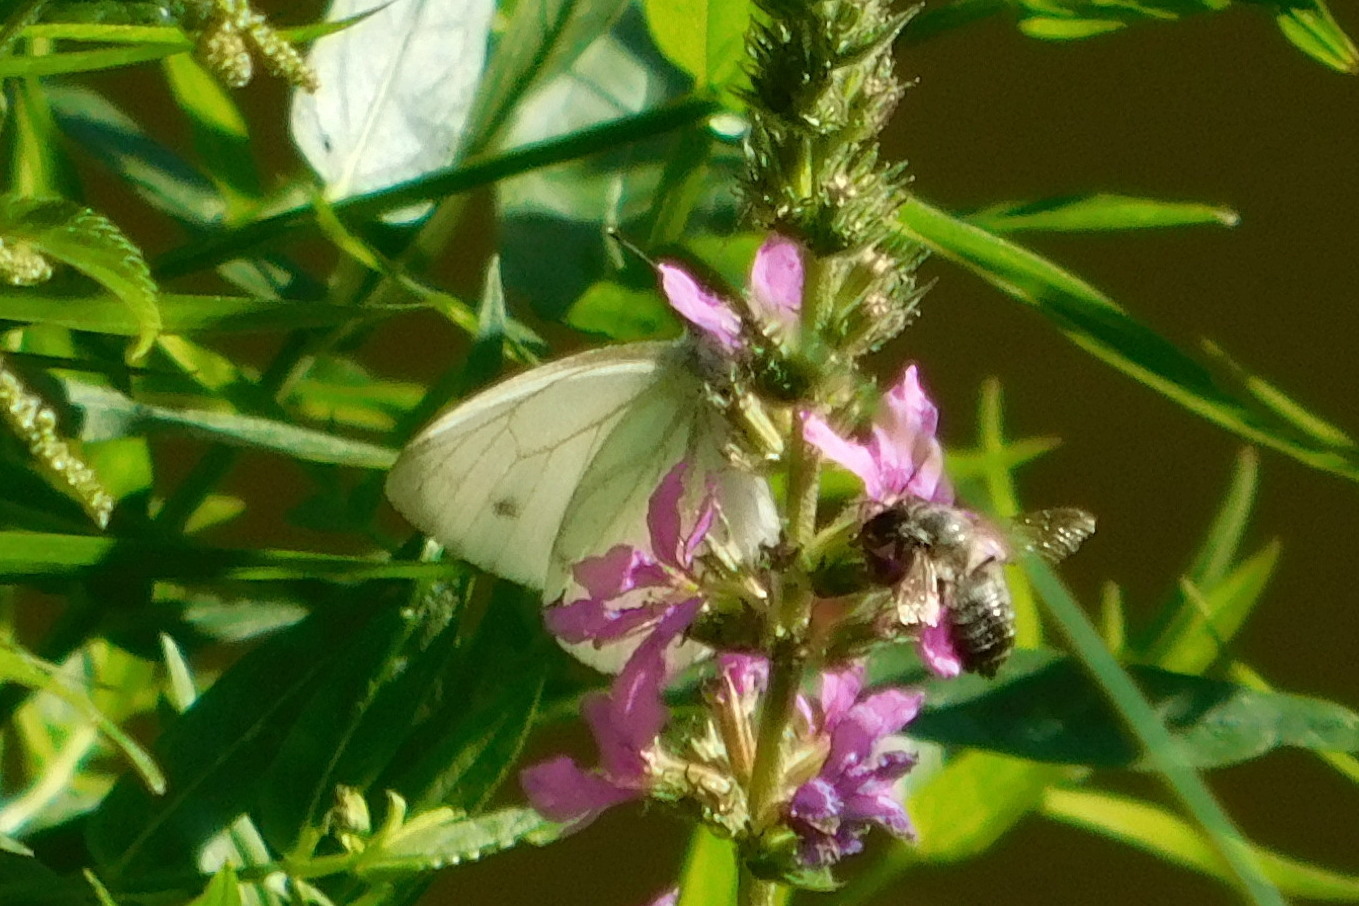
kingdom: Animalia
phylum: Arthropoda
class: Insecta
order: Lepidoptera
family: Pieridae
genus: Pieris
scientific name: Pieris napi
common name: Green-veined white
